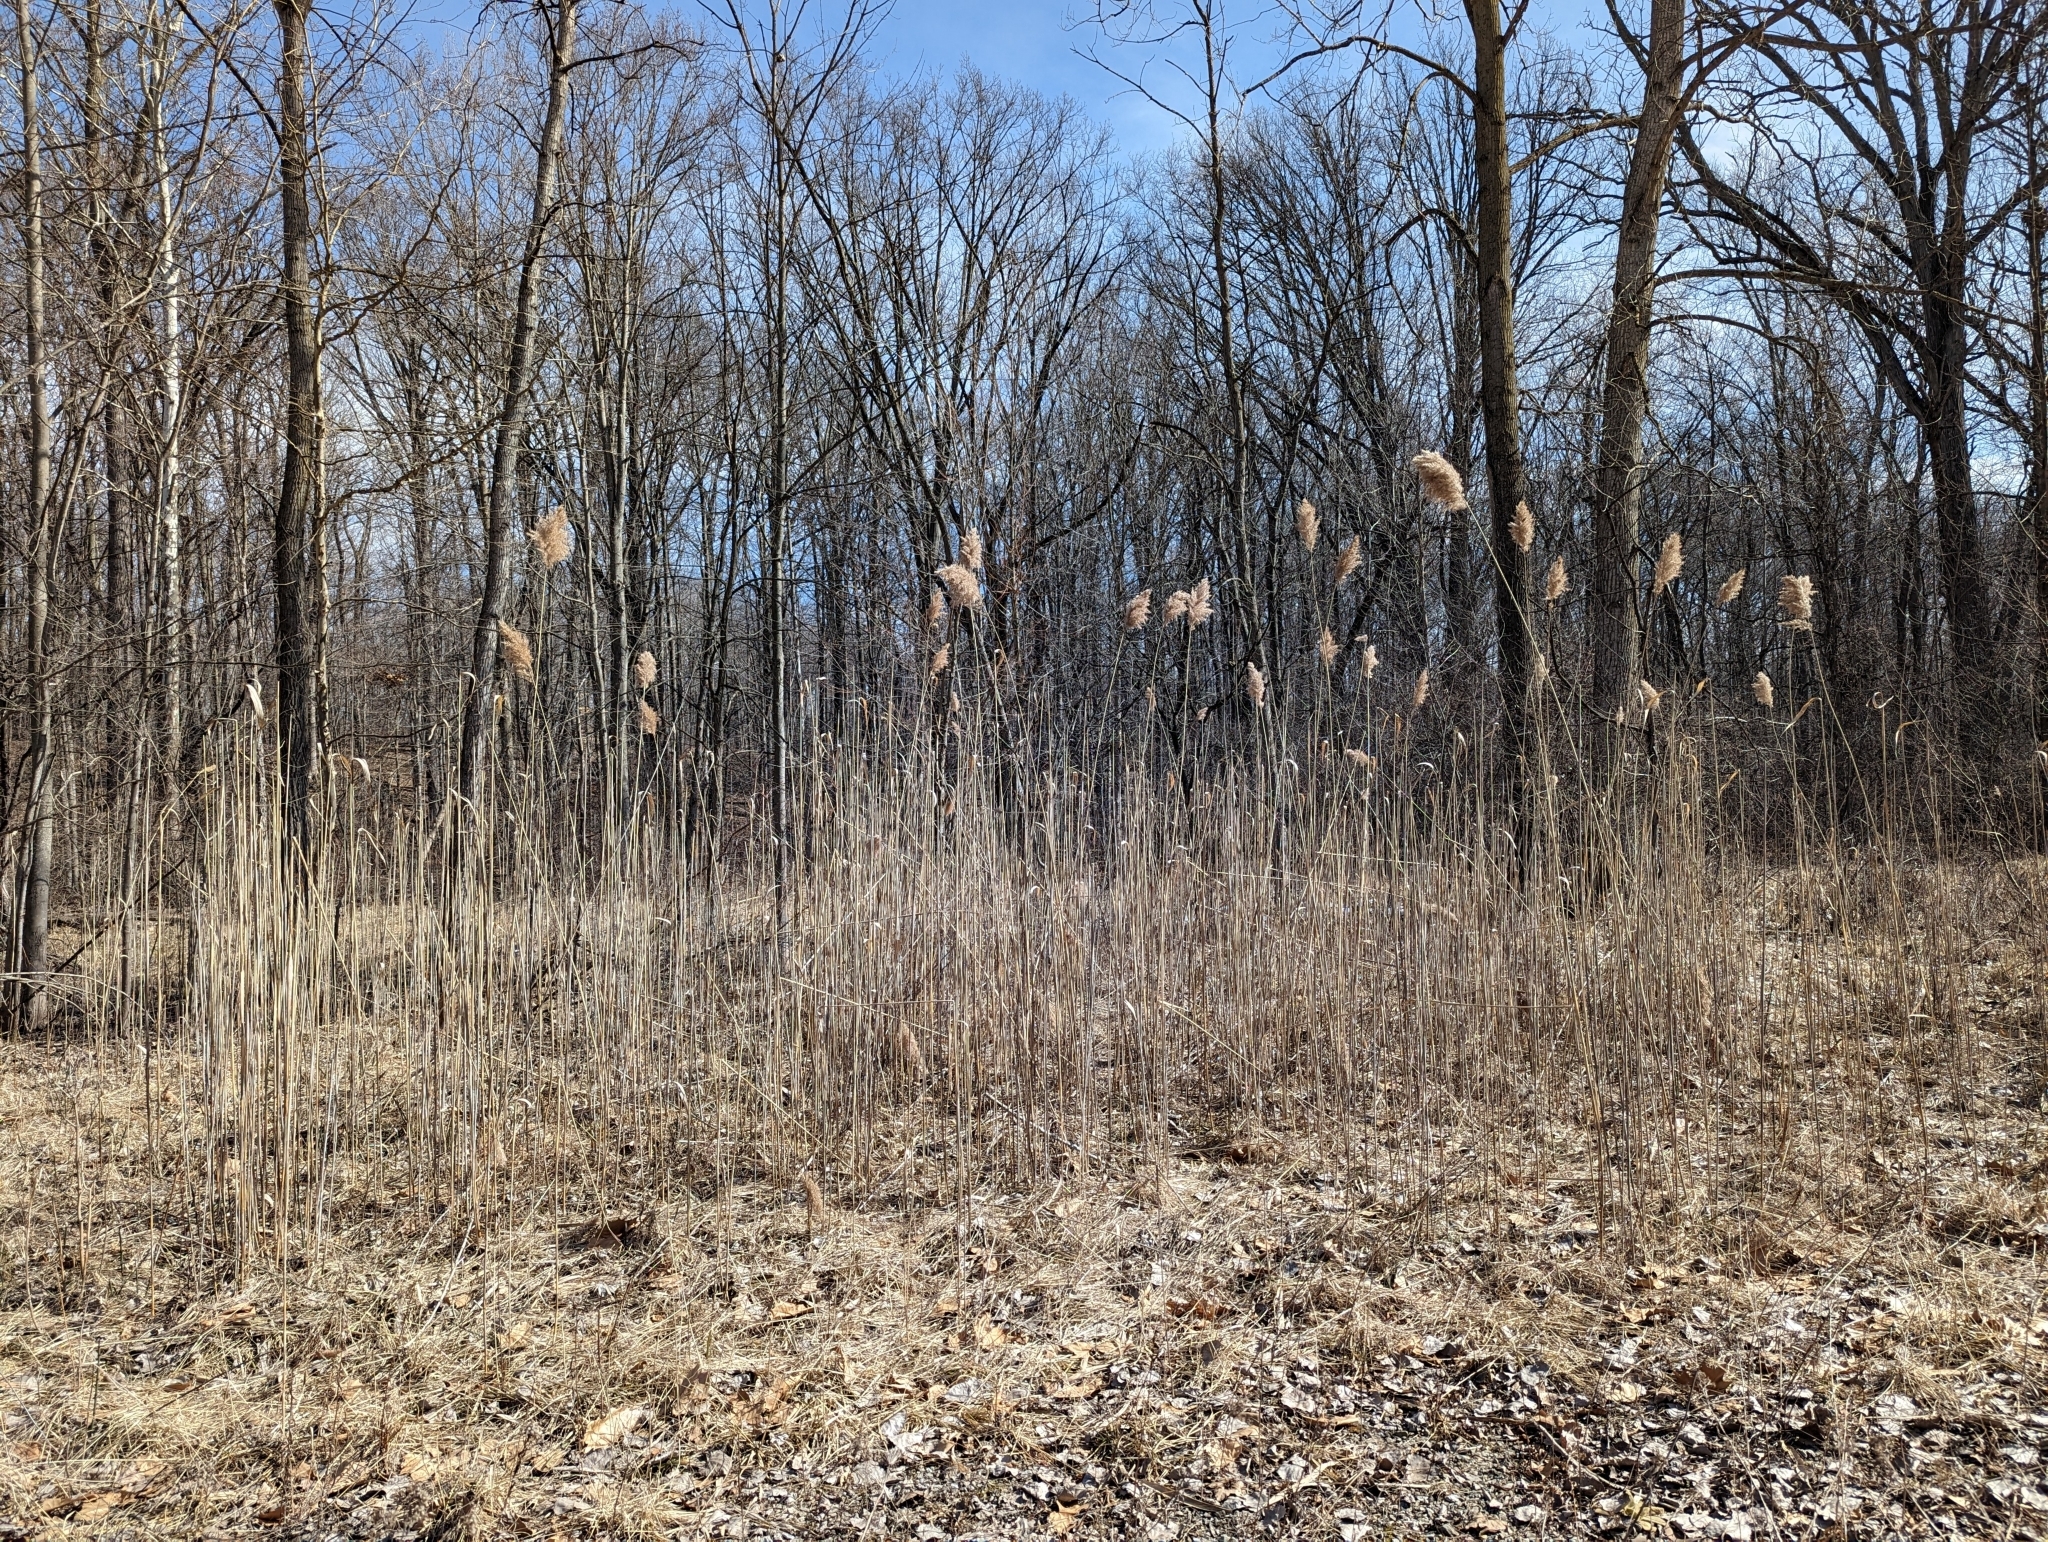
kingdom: Plantae
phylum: Tracheophyta
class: Liliopsida
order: Poales
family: Poaceae
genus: Phragmites
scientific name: Phragmites australis
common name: Common reed
